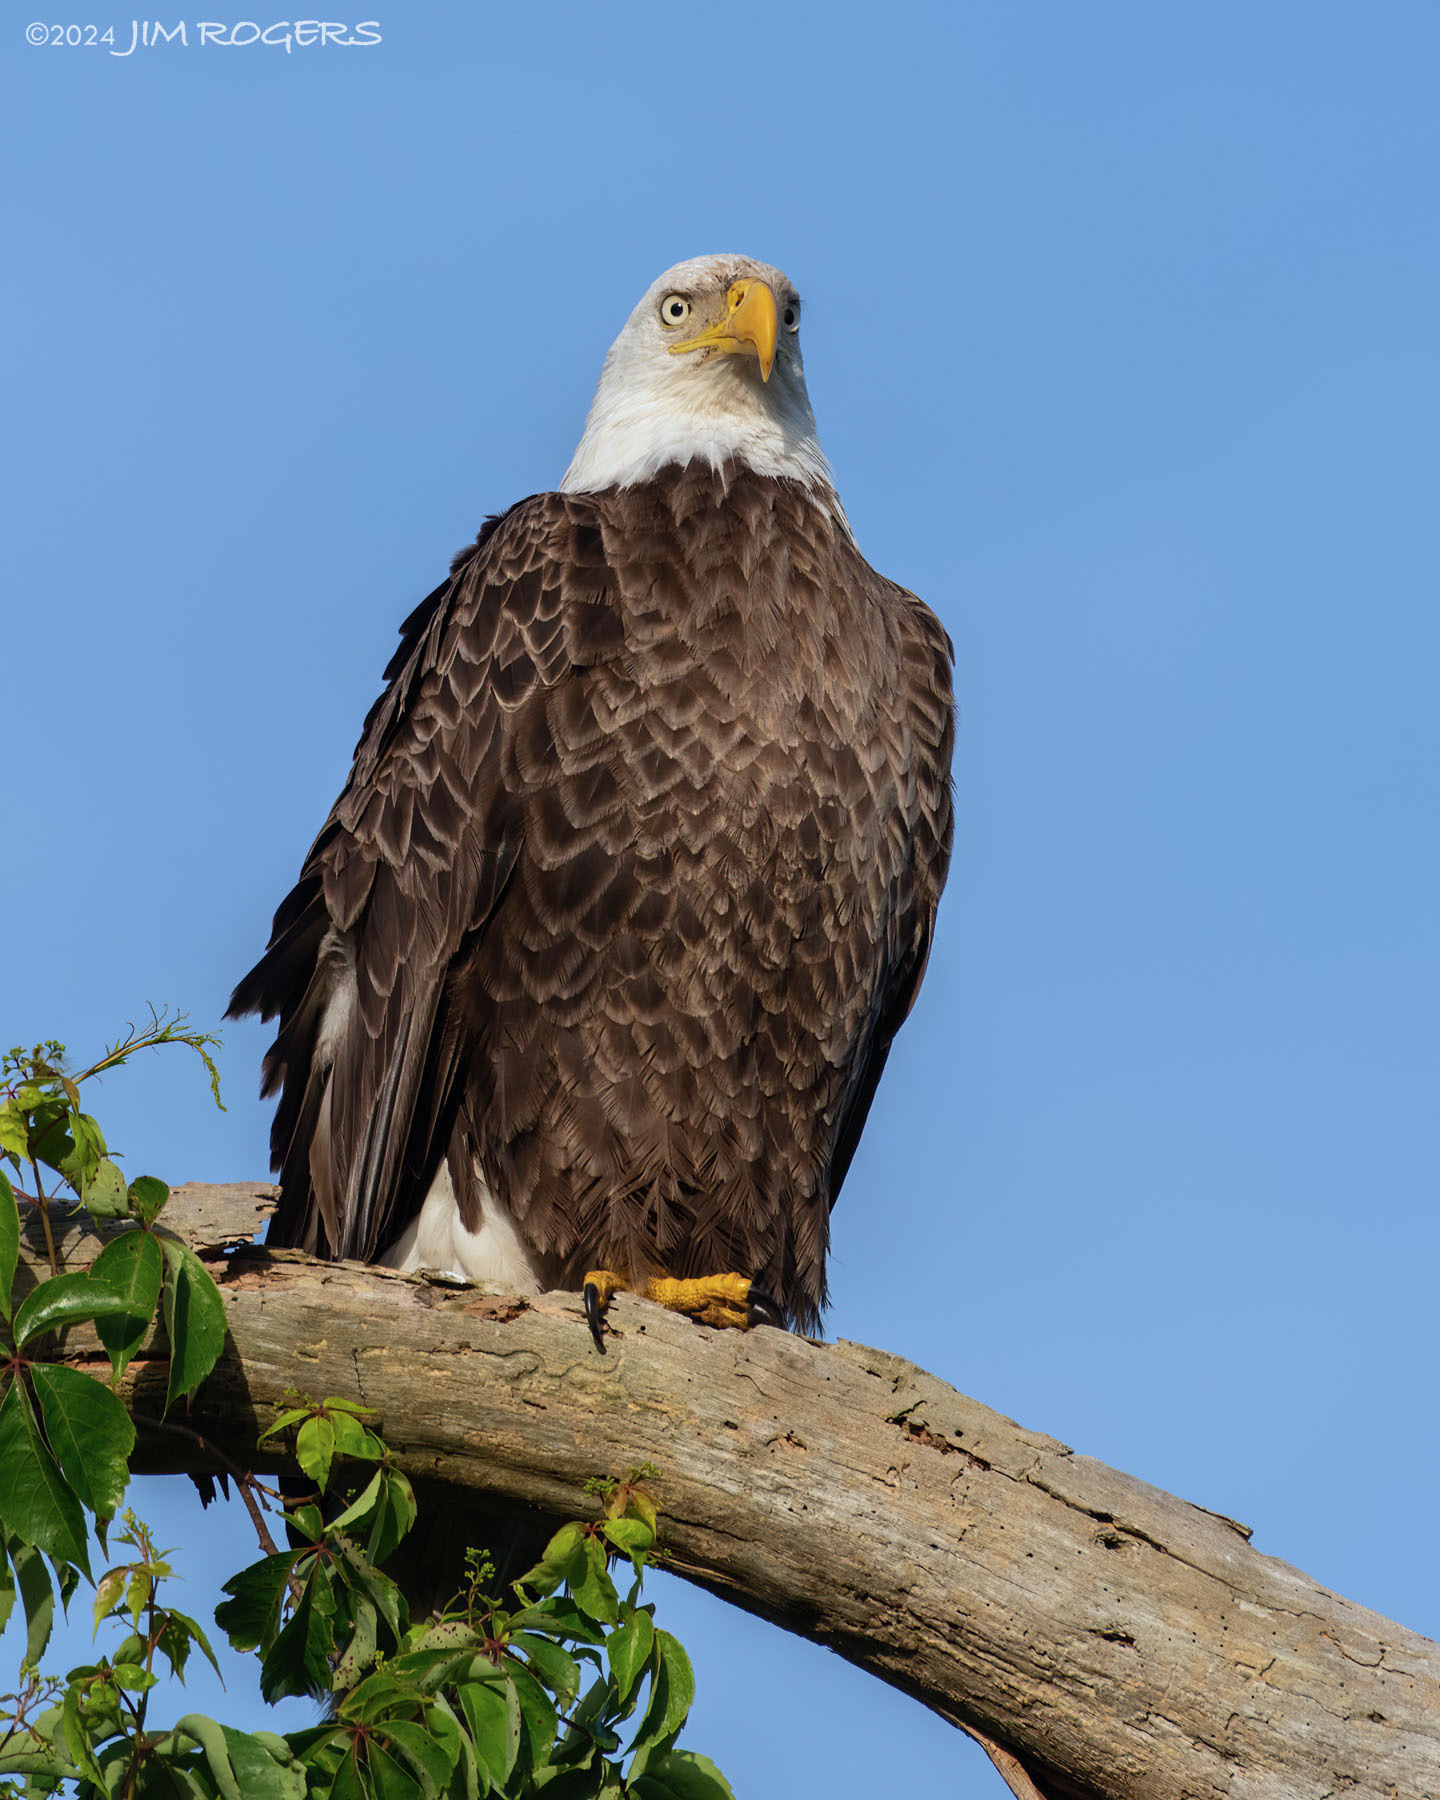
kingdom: Animalia
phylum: Chordata
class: Aves
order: Accipitriformes
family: Accipitridae
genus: Haliaeetus
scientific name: Haliaeetus leucocephalus
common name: Bald eagle
